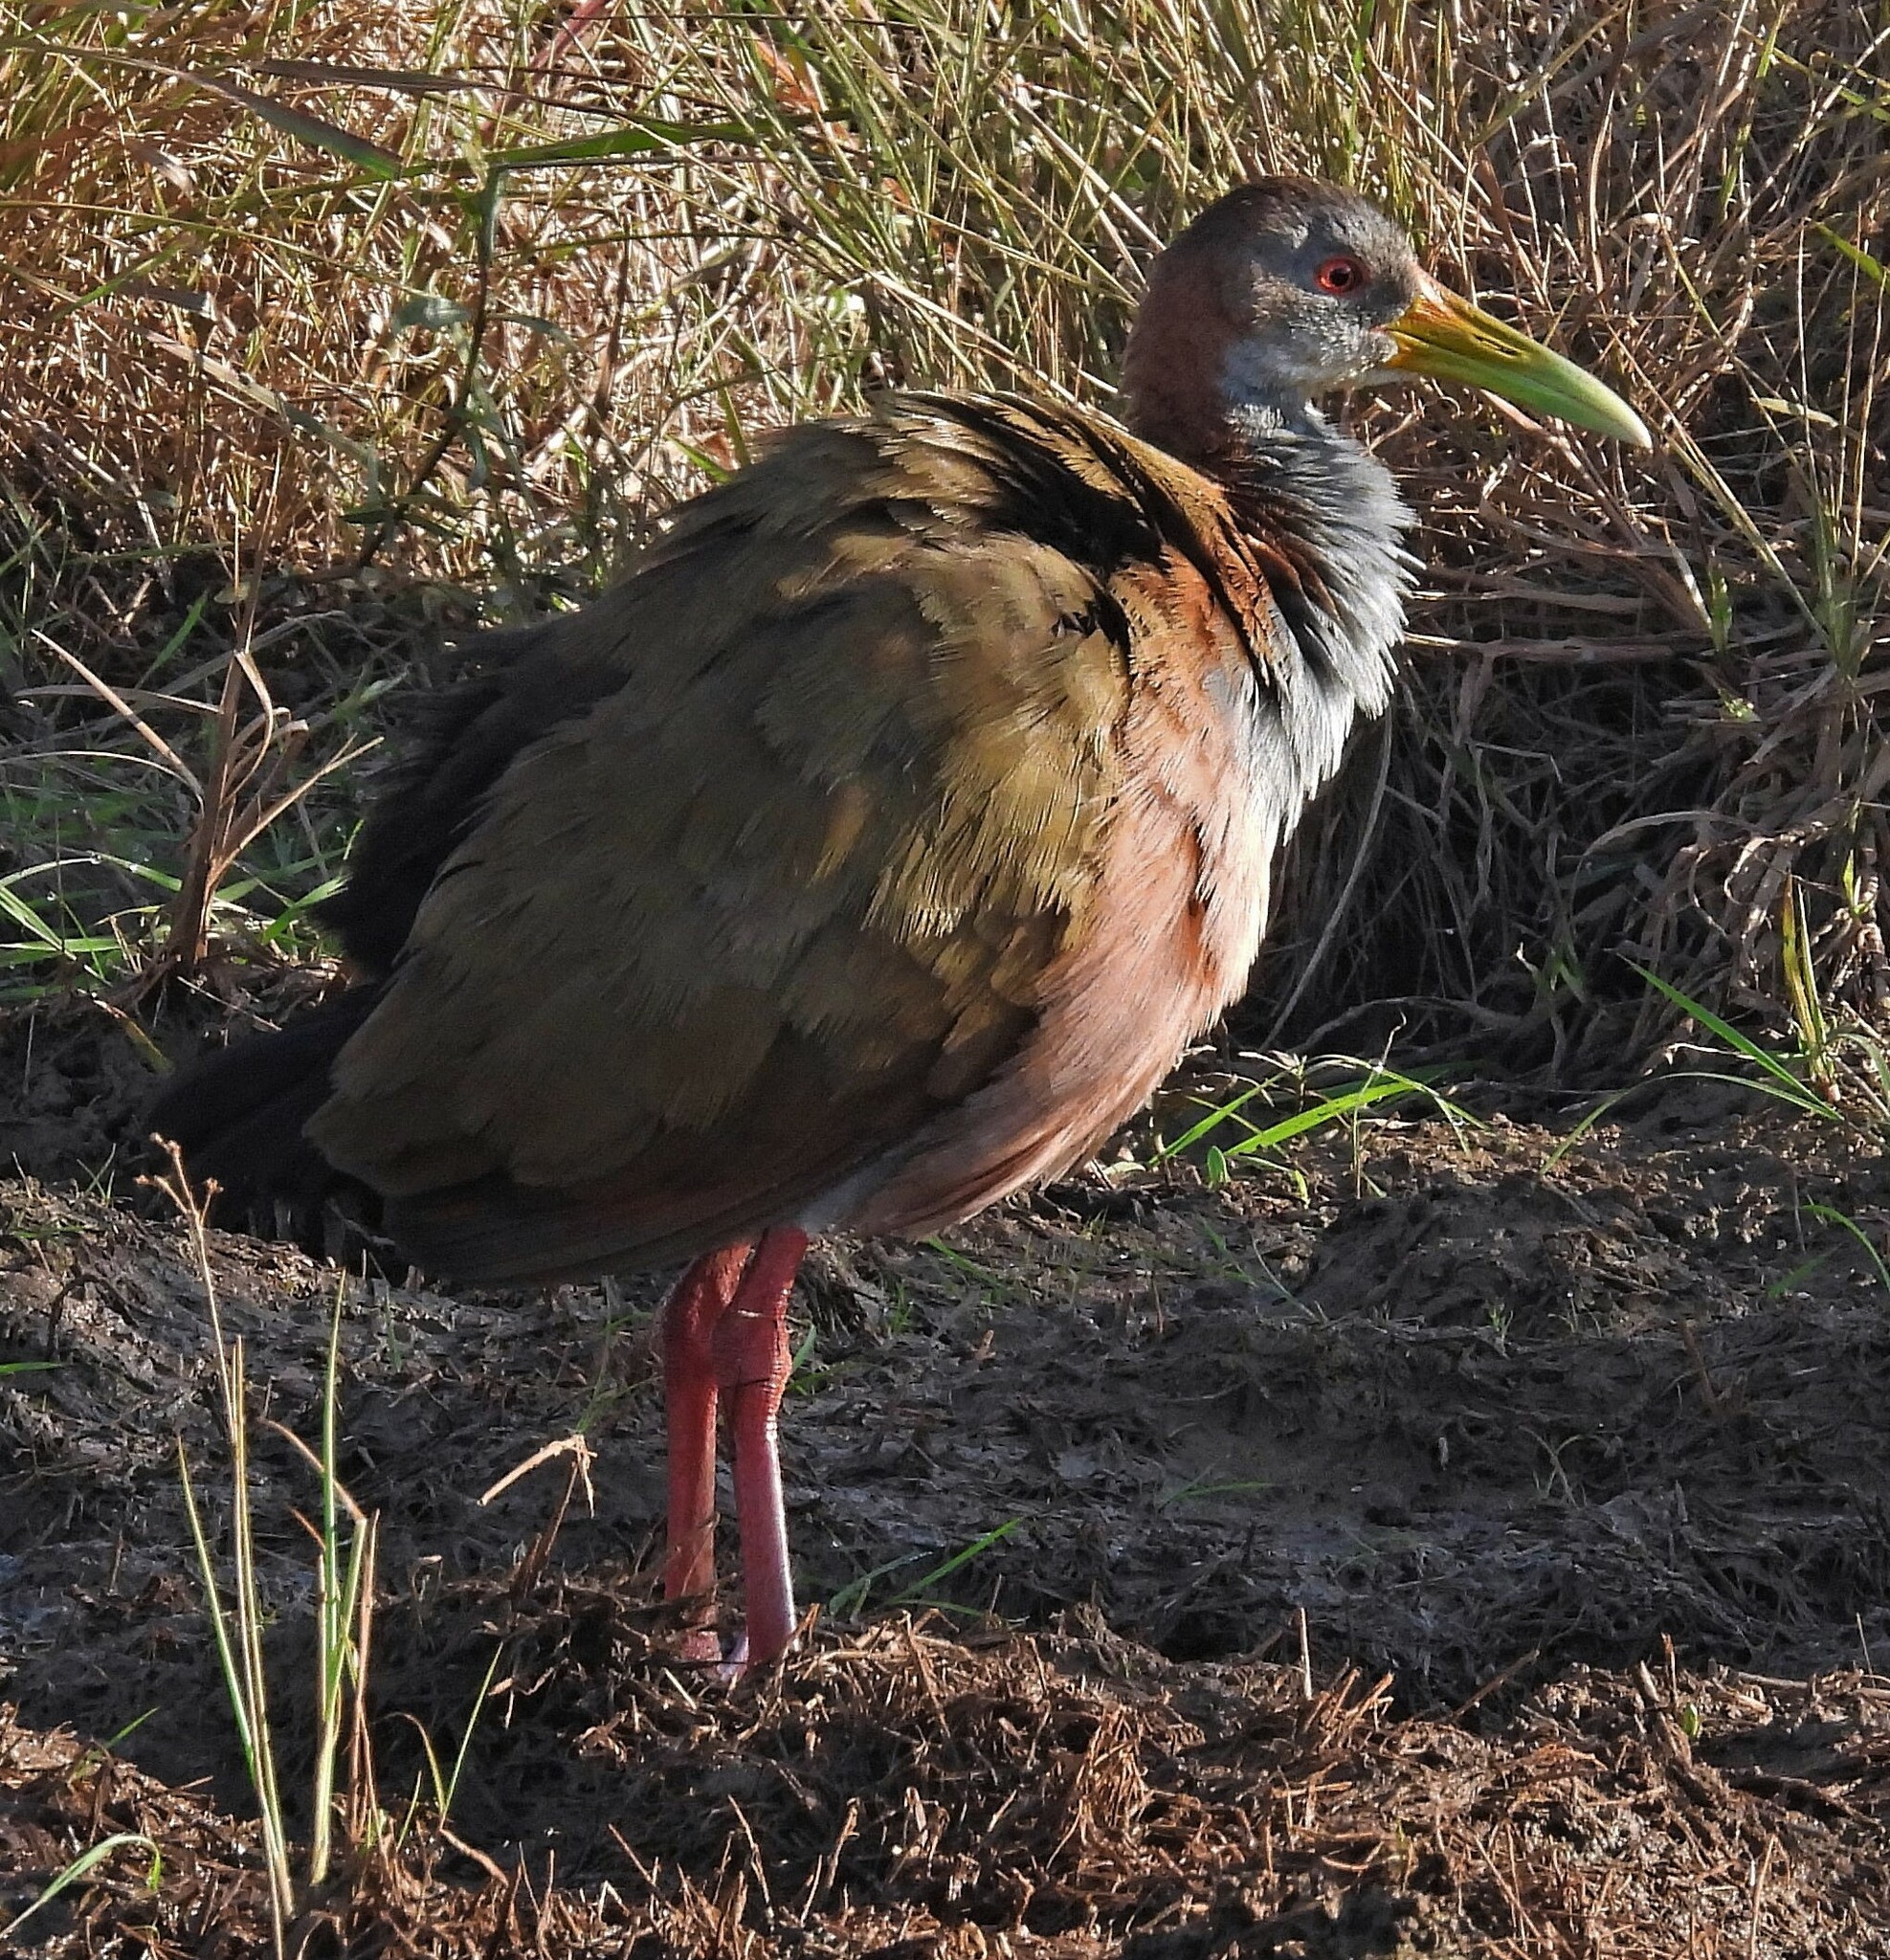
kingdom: Animalia
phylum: Chordata
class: Aves
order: Gruiformes
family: Rallidae
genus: Aramides
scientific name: Aramides ypecaha
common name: Giant wood rail
